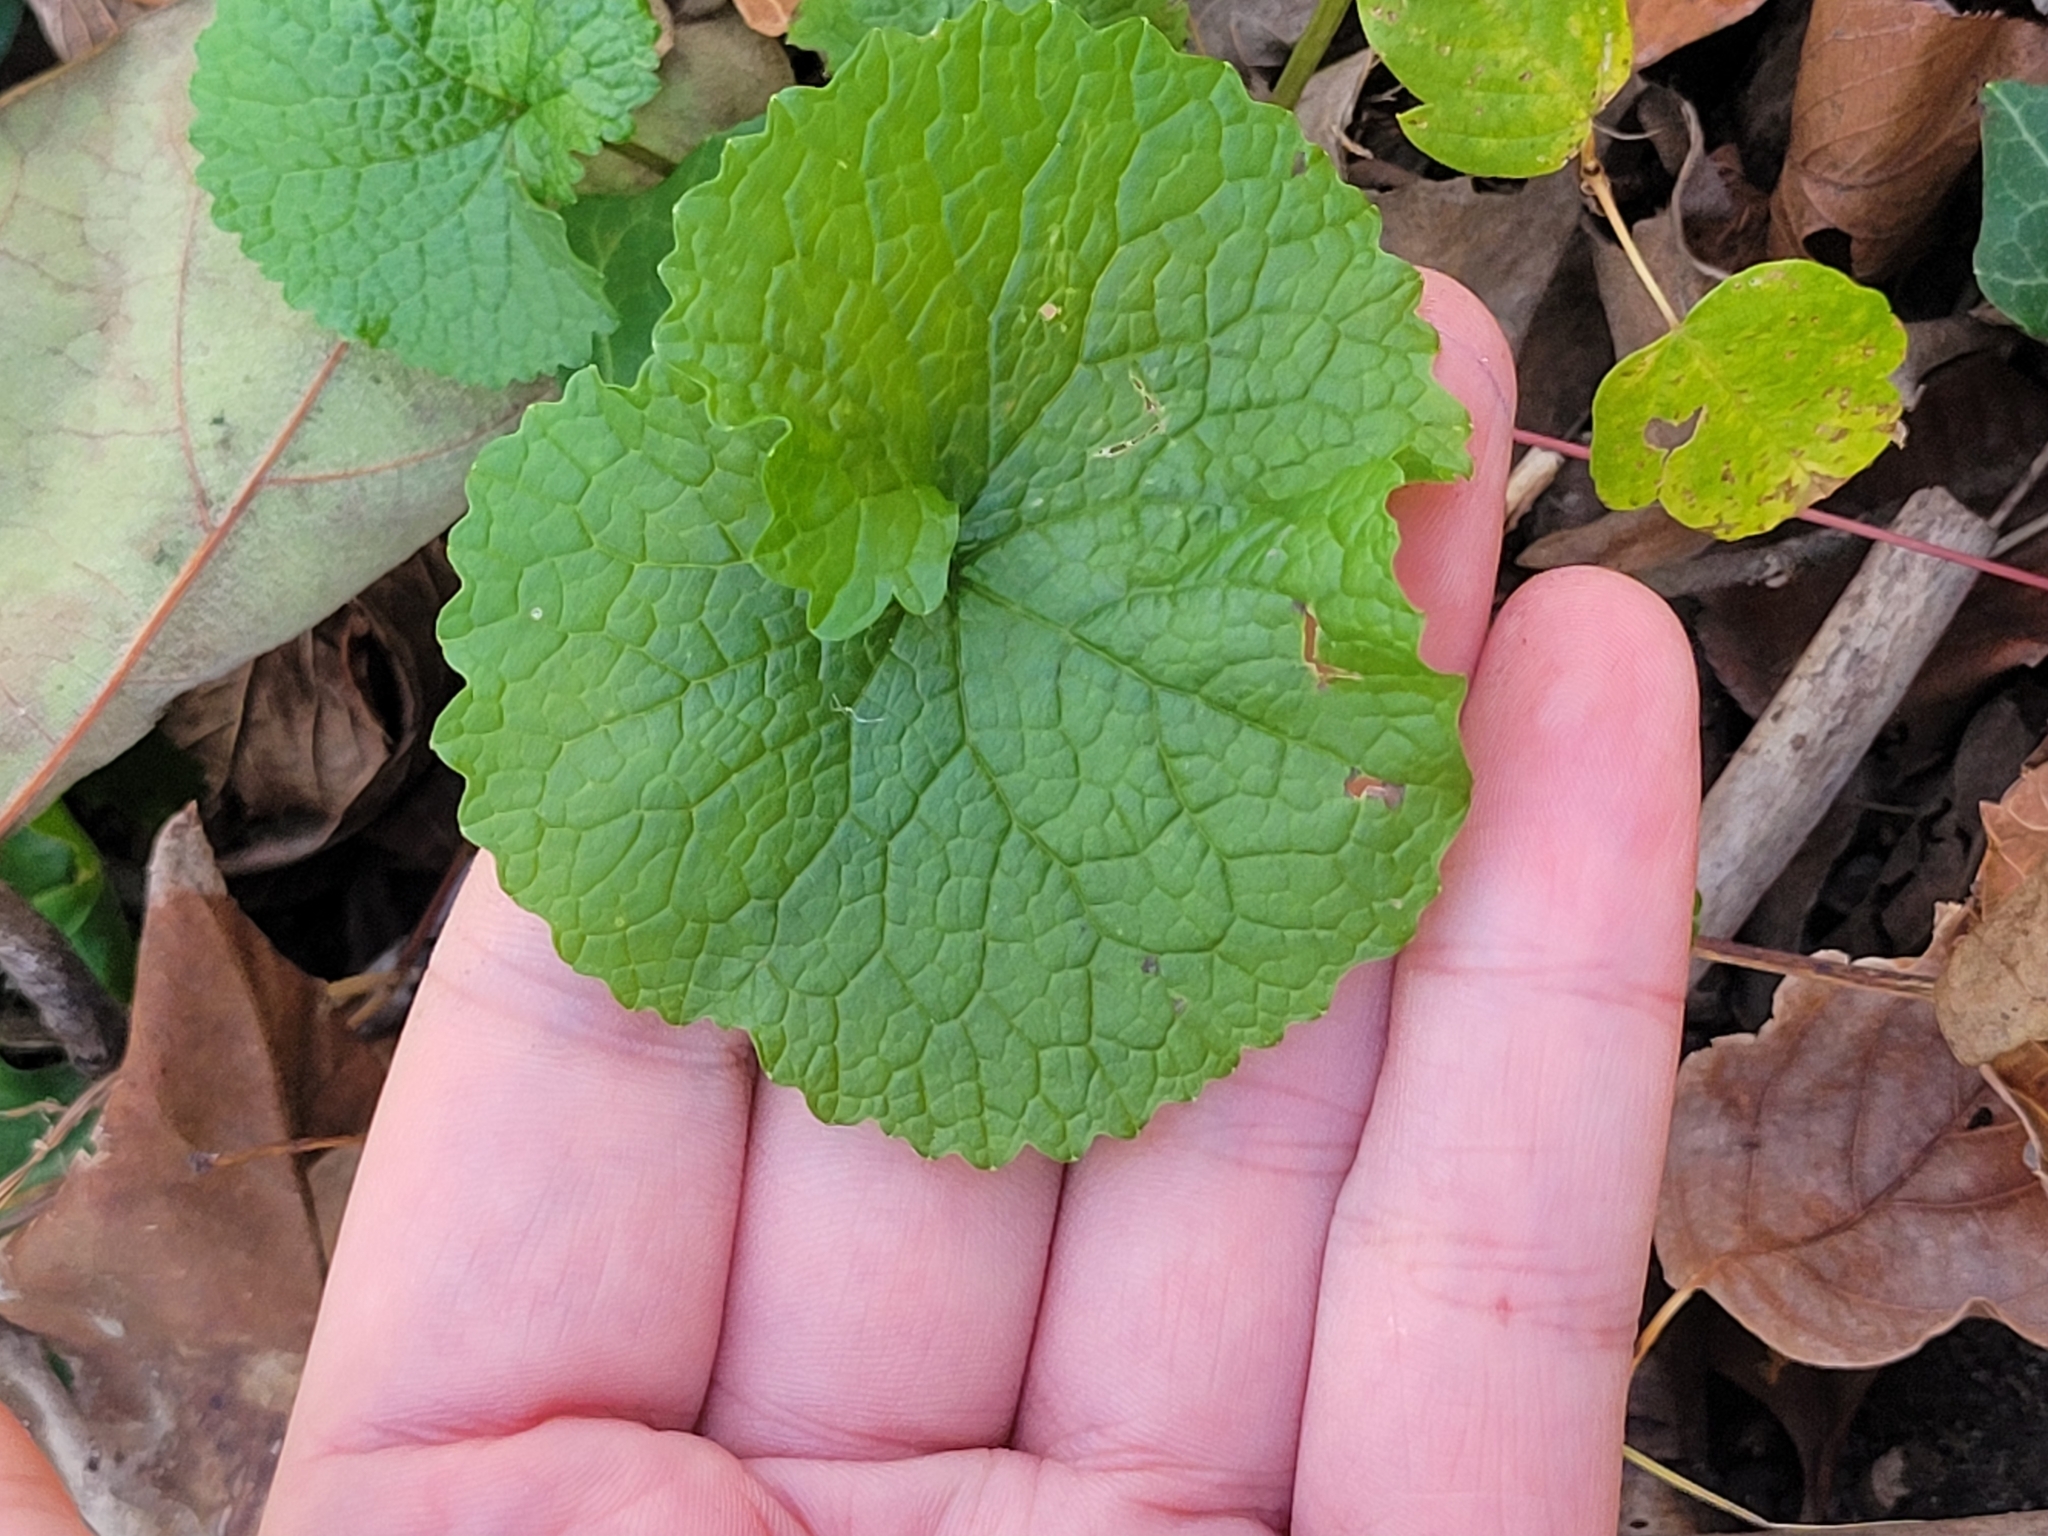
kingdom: Plantae
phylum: Tracheophyta
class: Magnoliopsida
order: Brassicales
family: Brassicaceae
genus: Alliaria
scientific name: Alliaria petiolata
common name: Garlic mustard
